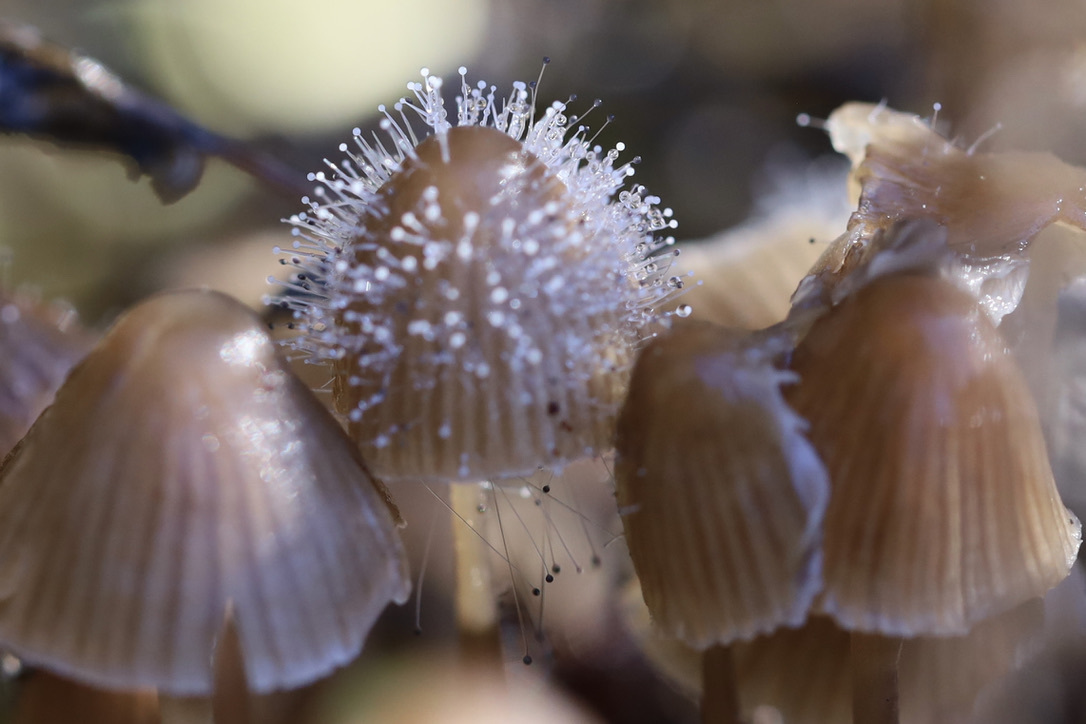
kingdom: Fungi
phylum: Mucoromycota
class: Mucoromycetes
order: Mucorales
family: Phycomycetaceae
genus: Spinellus
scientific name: Spinellus fusiger
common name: Bonnet mould
